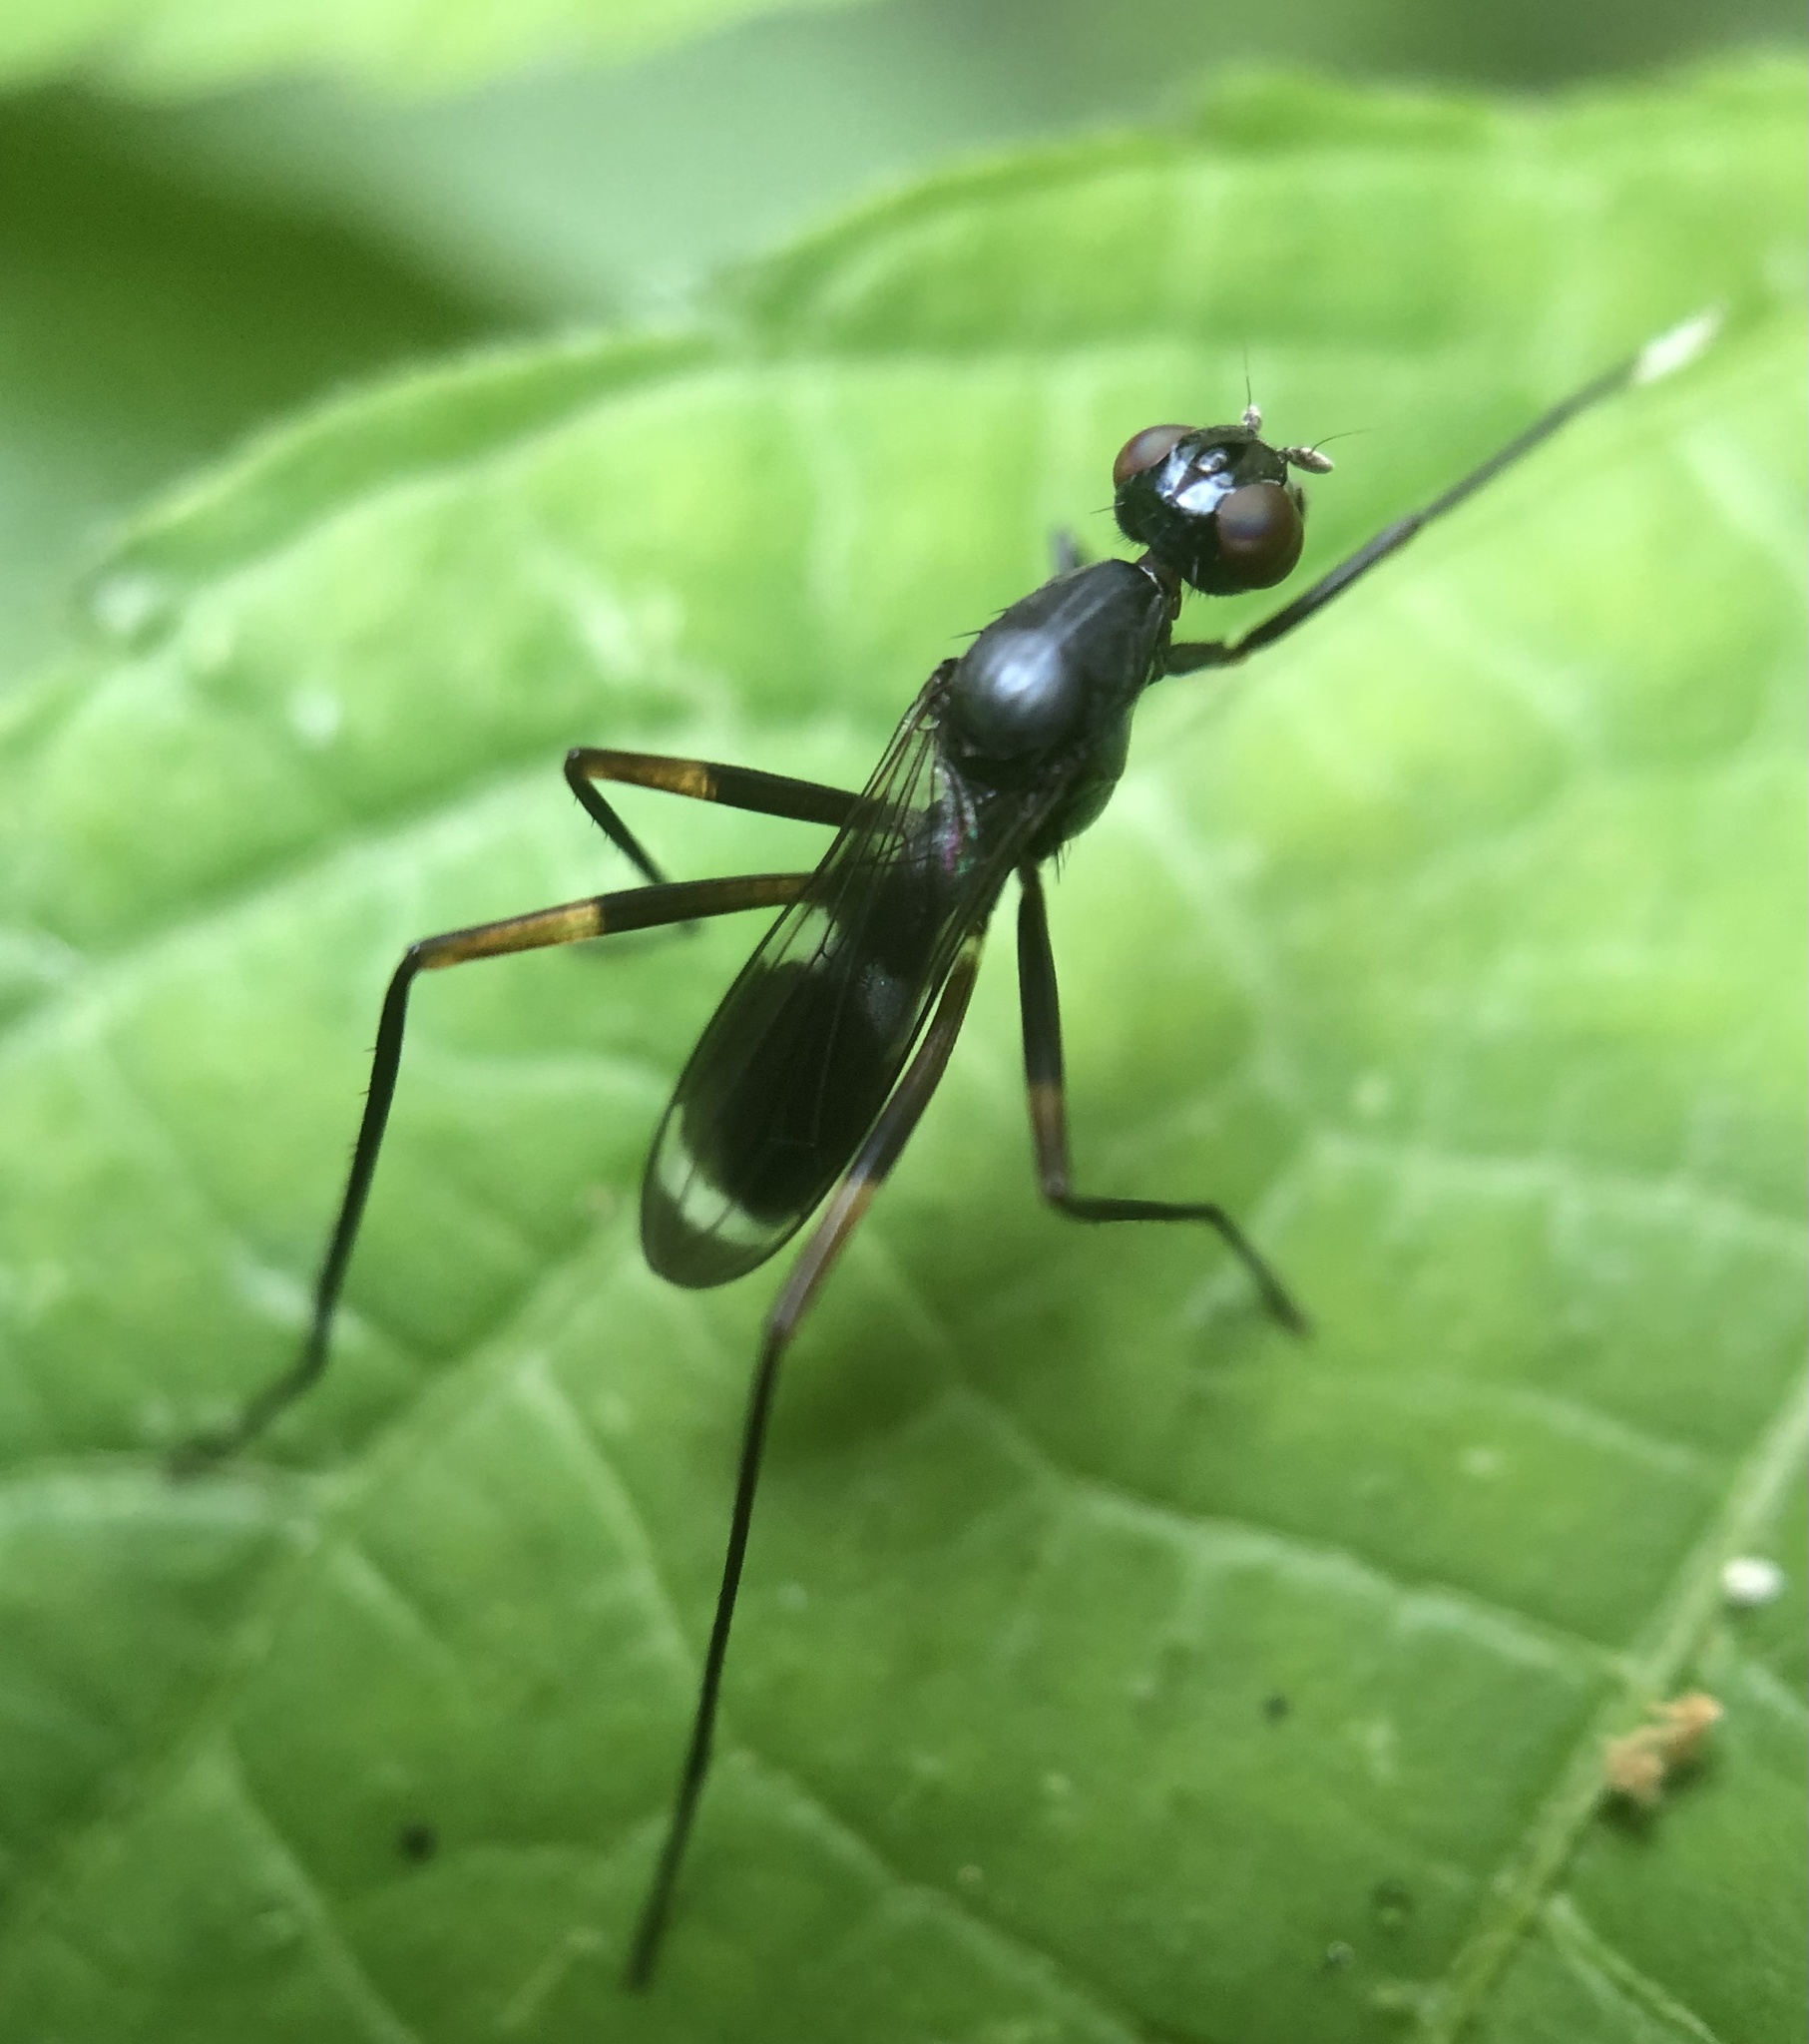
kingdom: Animalia
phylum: Arthropoda
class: Insecta
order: Diptera
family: Micropezidae
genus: Taeniaptera
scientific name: Taeniaptera trivittata
